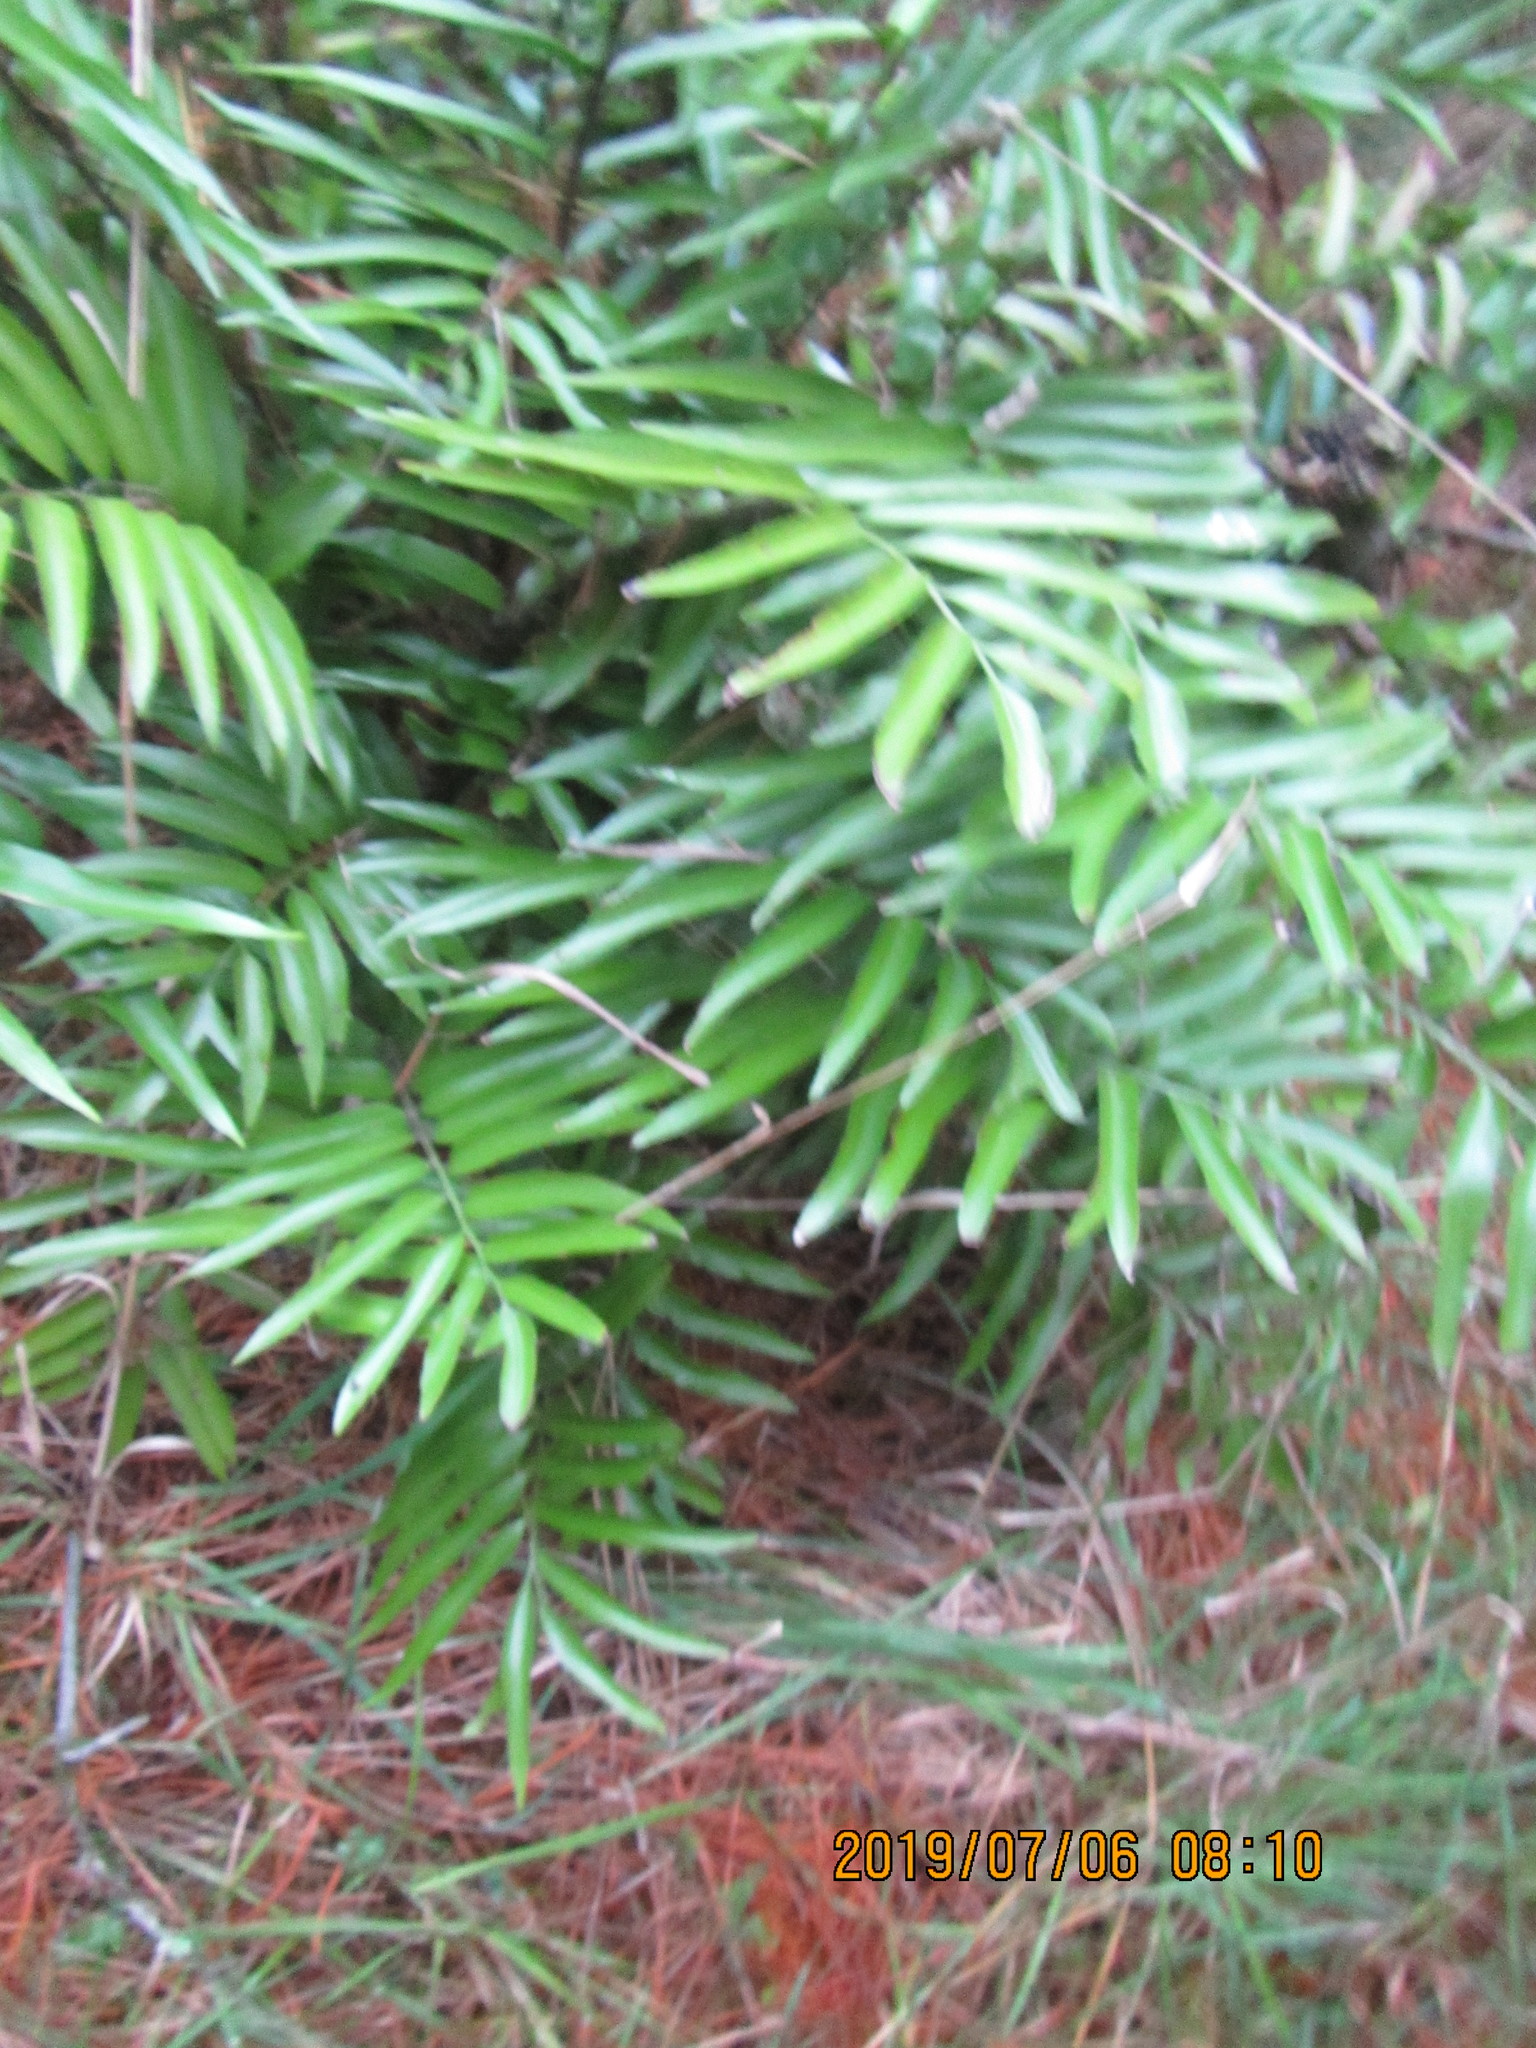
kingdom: Plantae
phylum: Tracheophyta
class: Polypodiopsida
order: Polypodiales
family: Aspleniaceae
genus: Asplenium
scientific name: Asplenium oblongifolium
